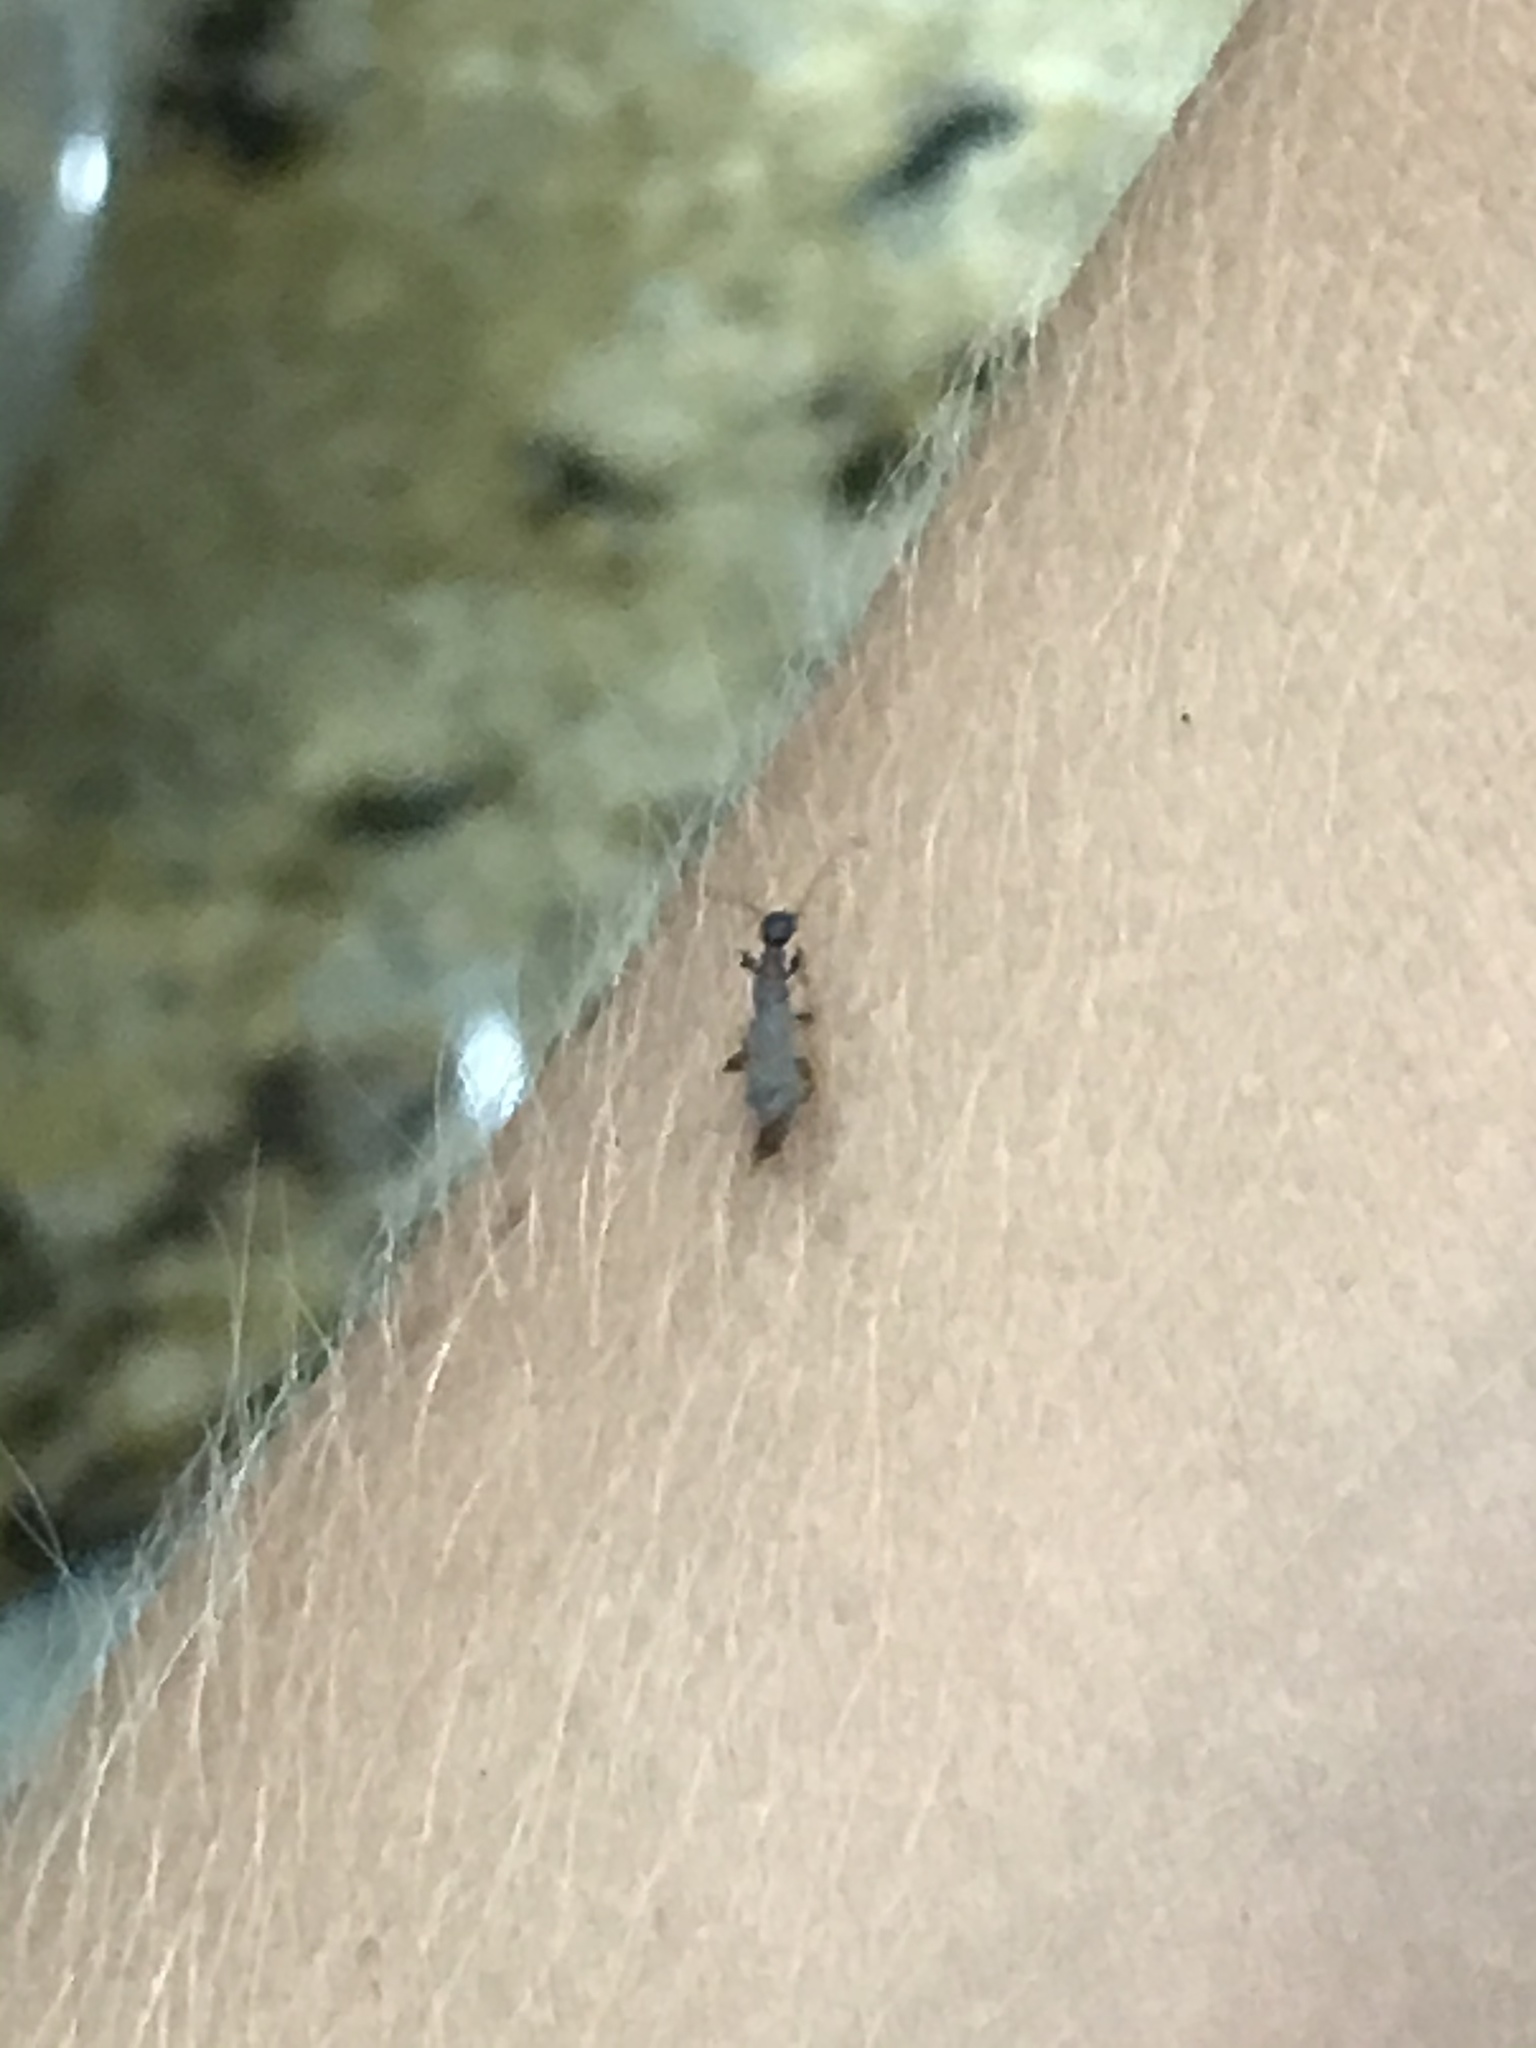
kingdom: Animalia
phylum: Arthropoda
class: Insecta
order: Embioptera
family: Oligotomidae
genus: Oligotoma
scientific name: Oligotoma nigra
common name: Black webspinner
